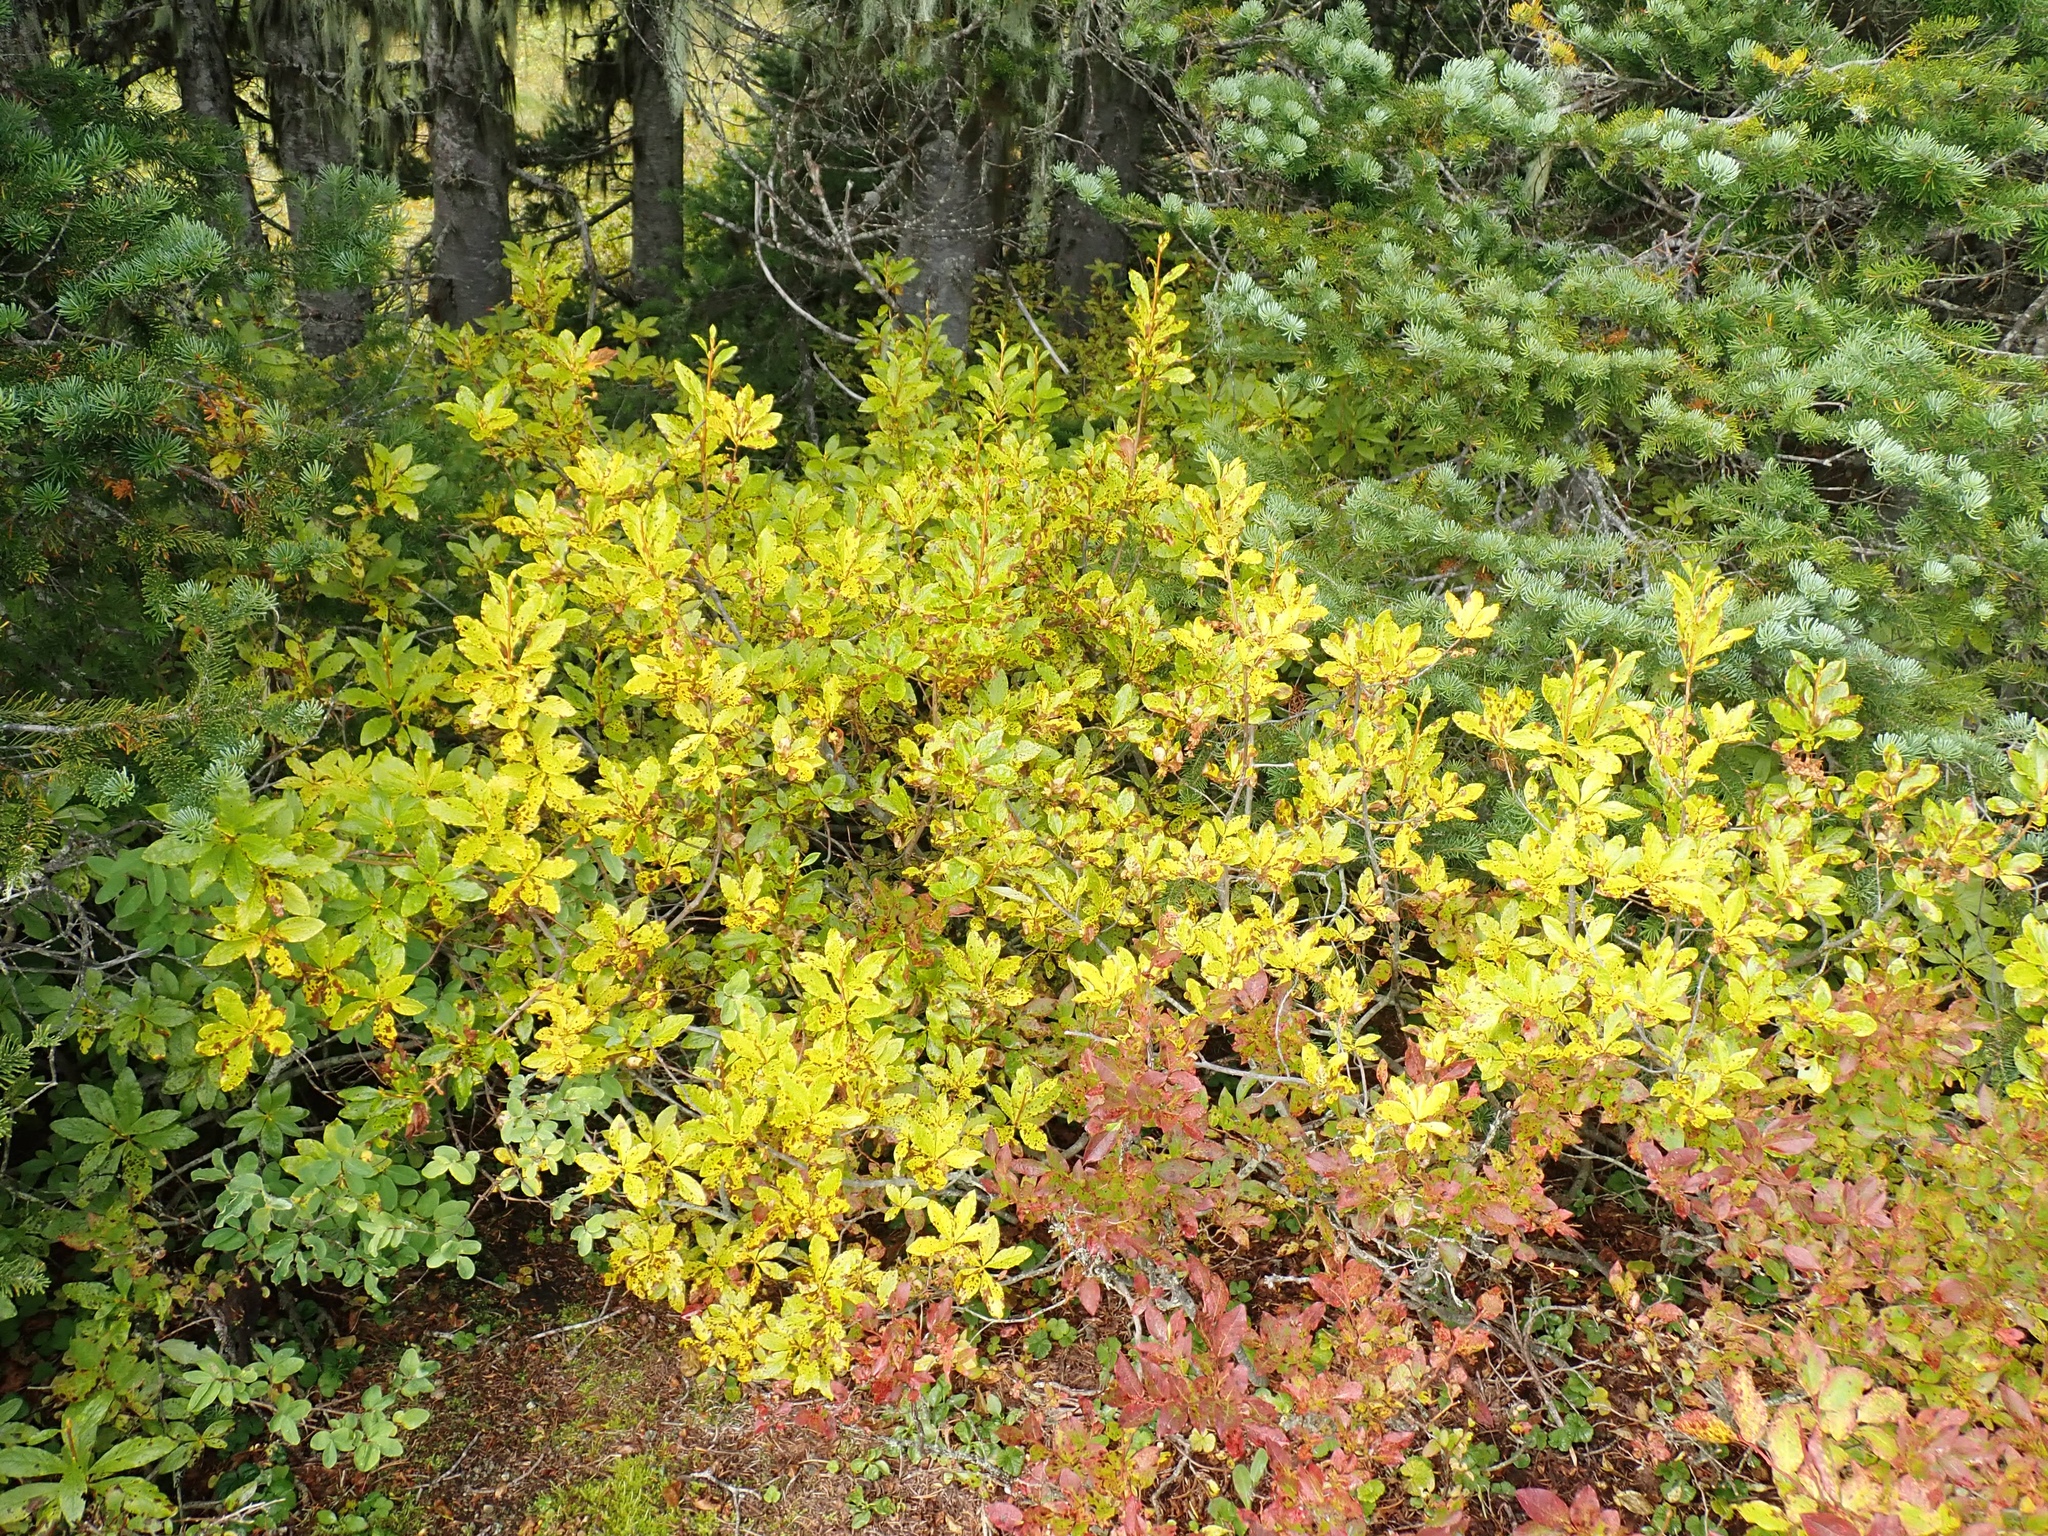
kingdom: Plantae
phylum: Tracheophyta
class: Magnoliopsida
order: Ericales
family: Ericaceae
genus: Rhododendron
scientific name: Rhododendron albiflorum
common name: White rhododendron
